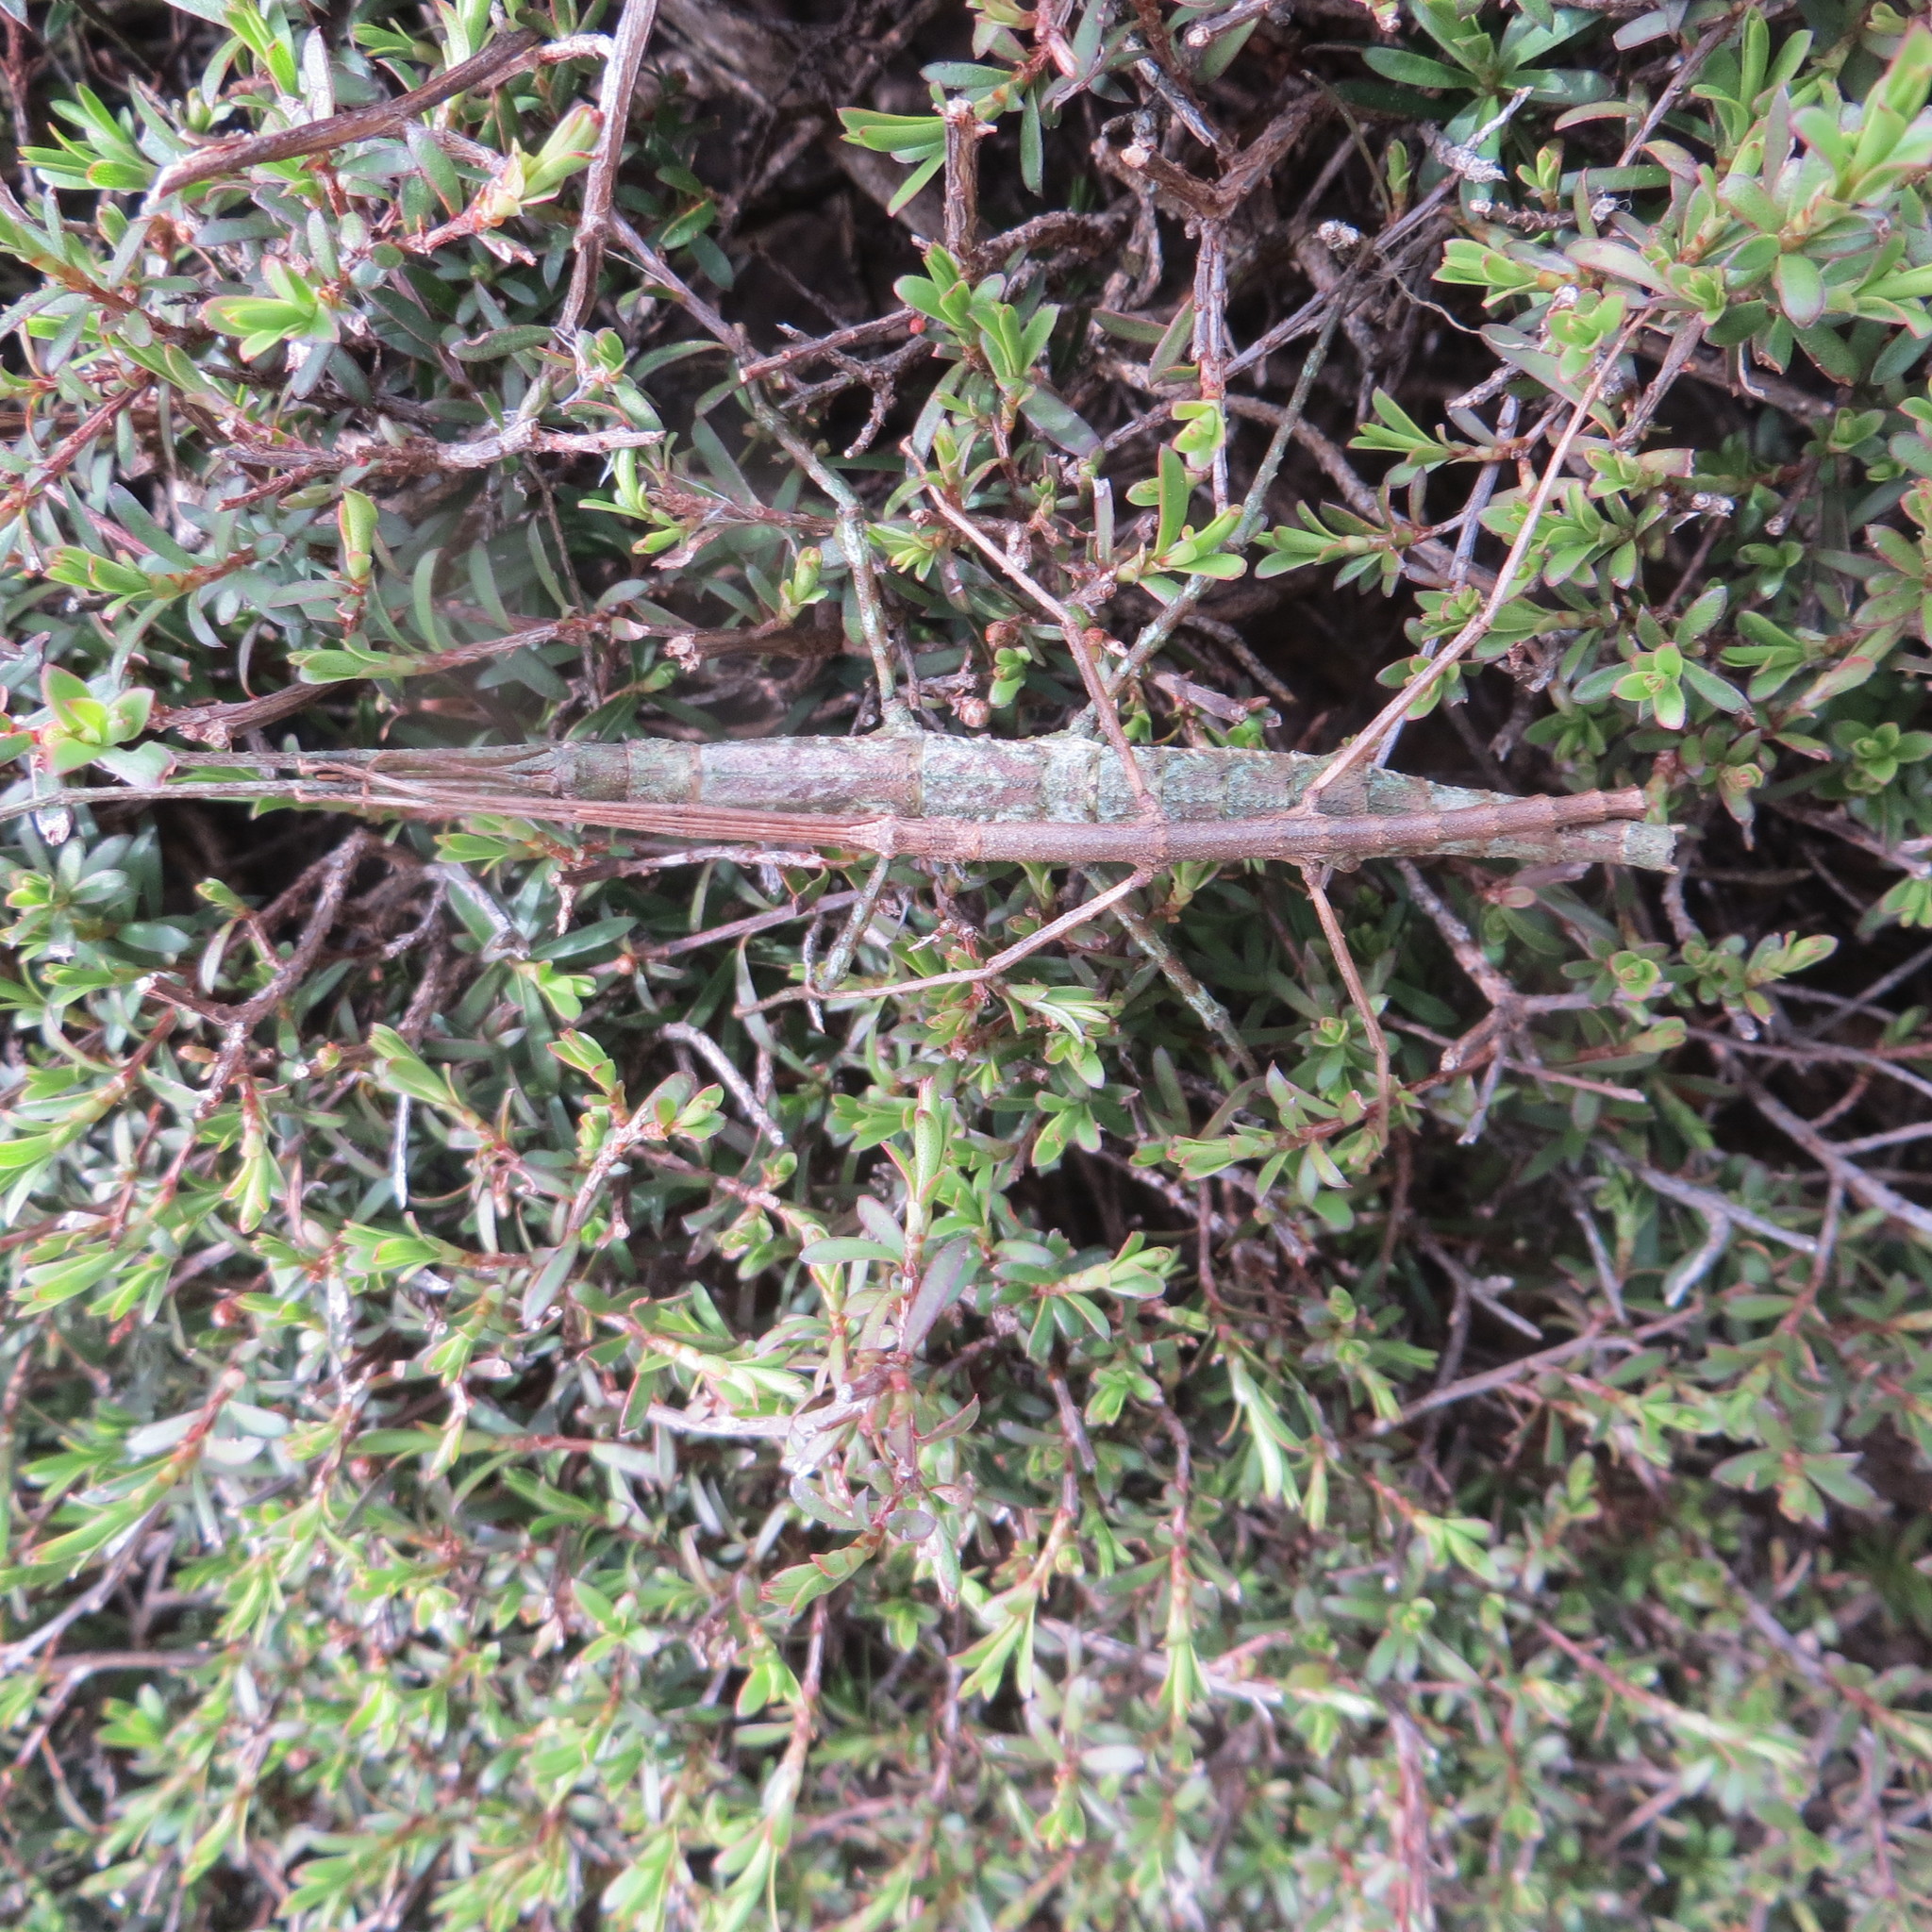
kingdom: Animalia
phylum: Arthropoda
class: Insecta
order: Phasmida
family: Phasmatidae
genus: Niveaphasma
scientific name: Niveaphasma annulatum
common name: Hutton's stick insect
